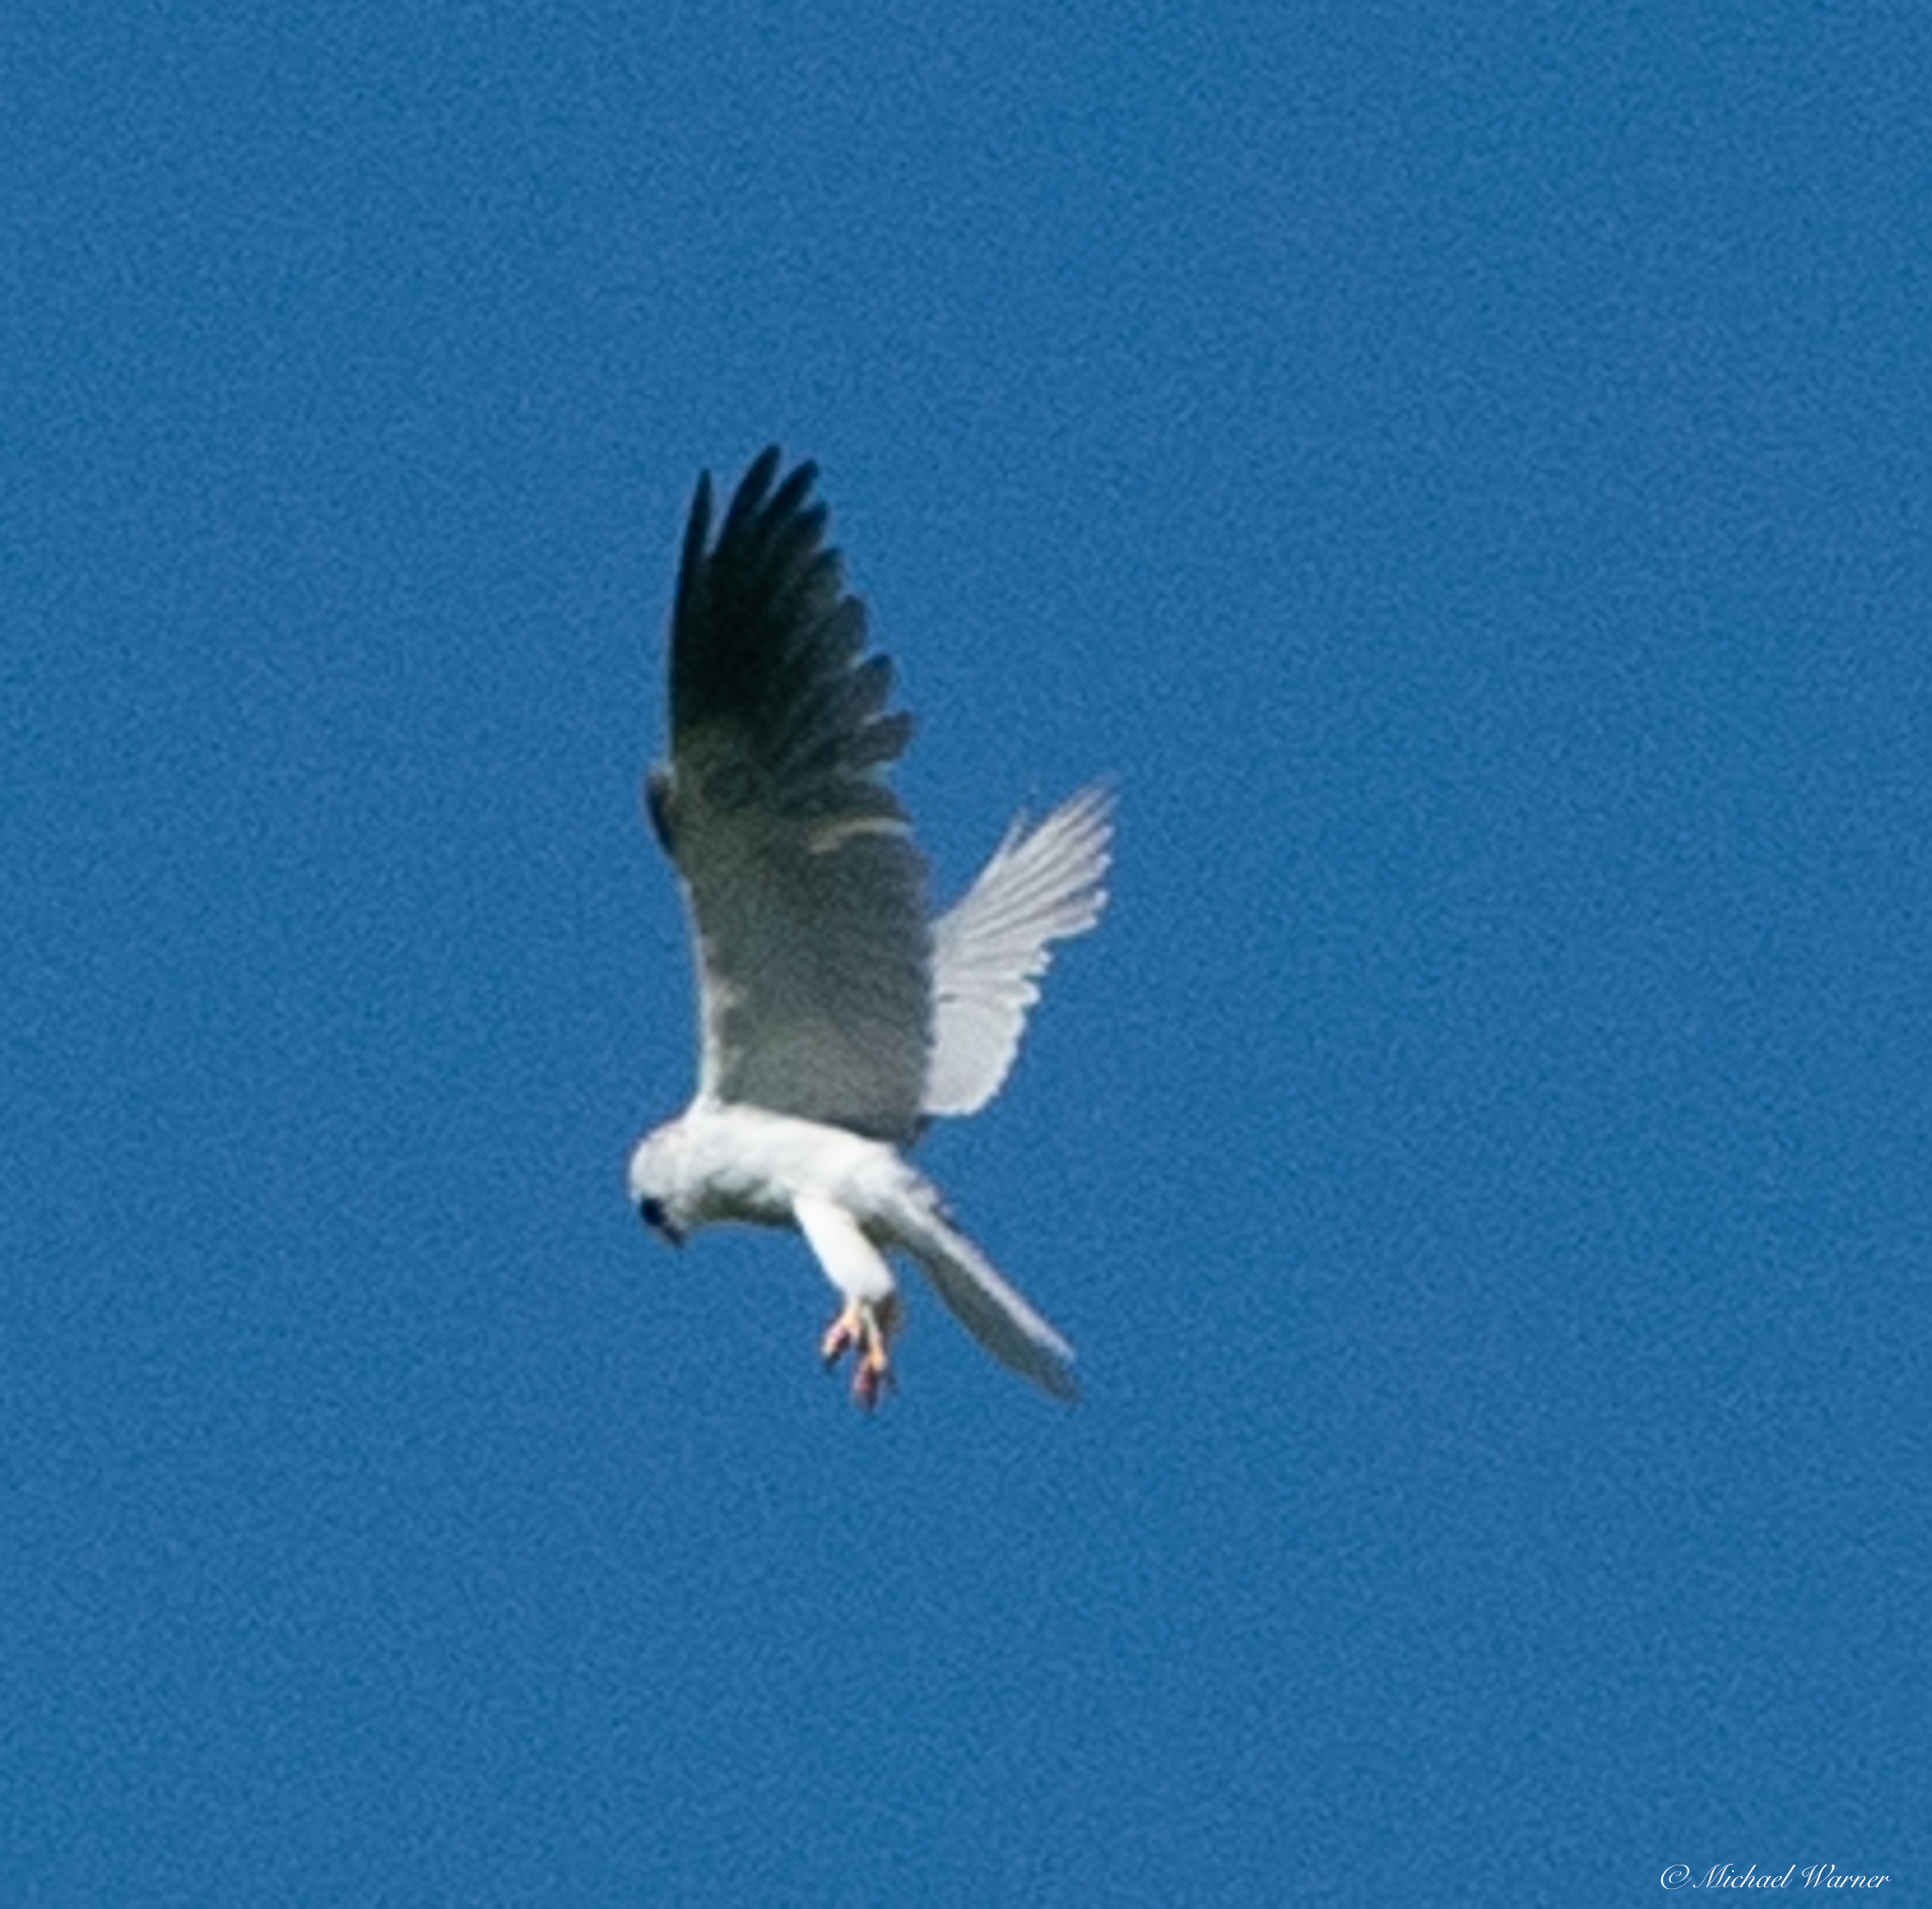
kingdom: Animalia
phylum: Chordata
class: Aves
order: Accipitriformes
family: Accipitridae
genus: Elanus
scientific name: Elanus leucurus
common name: White-tailed kite
